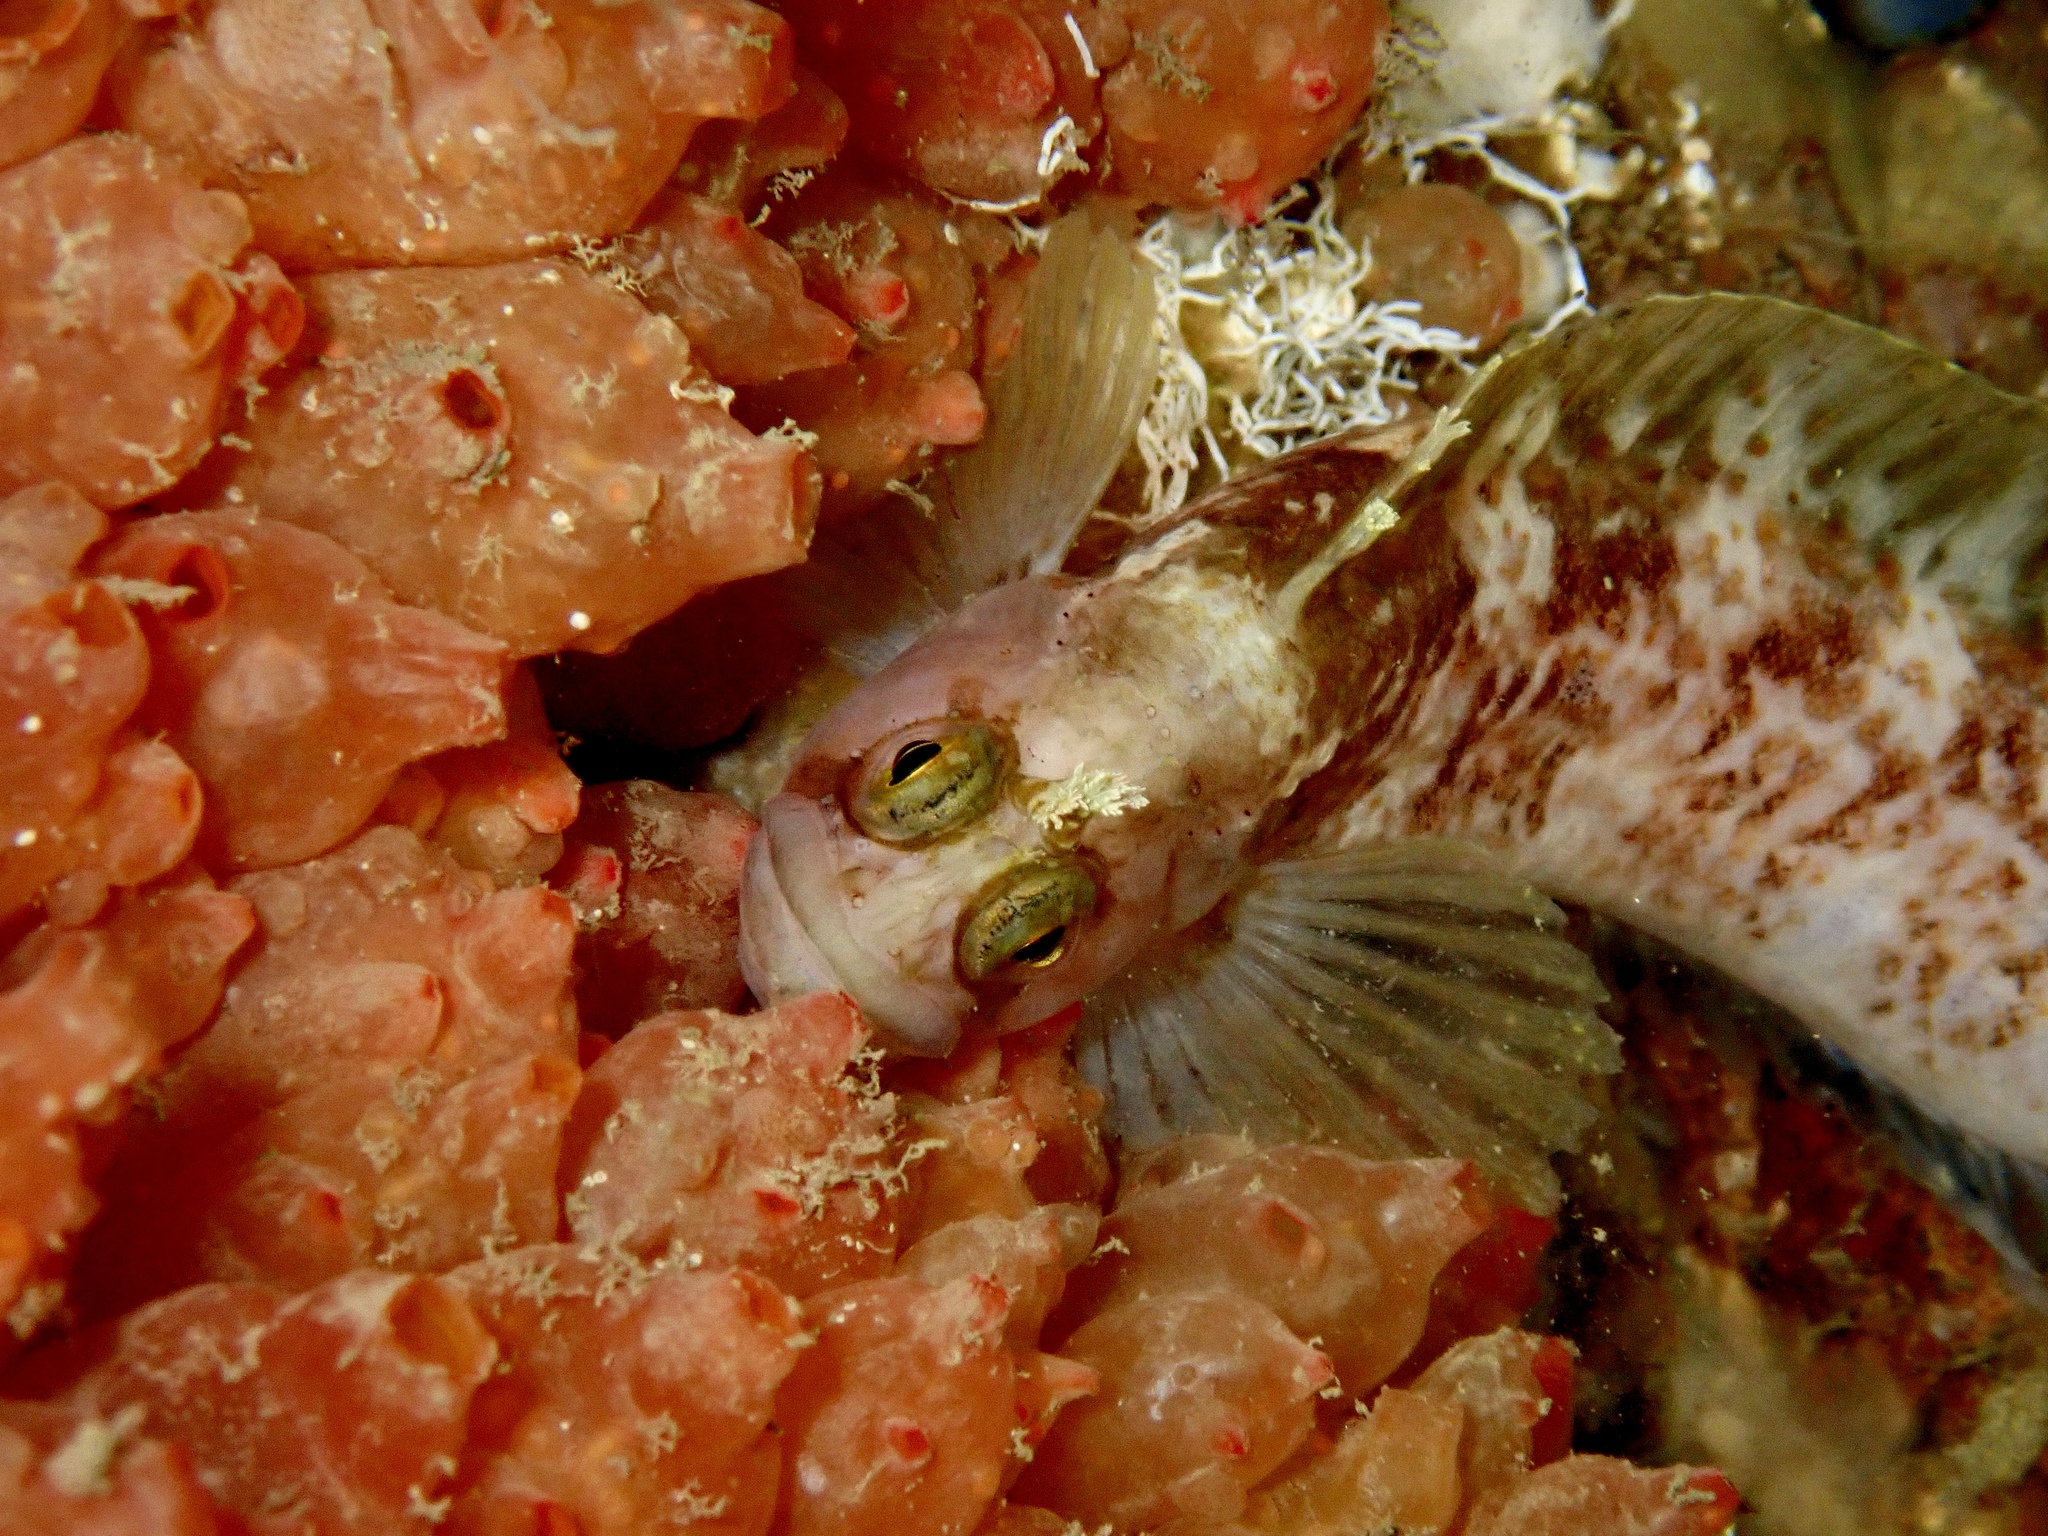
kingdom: Animalia
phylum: Chordata
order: Perciformes
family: Stichaeidae
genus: Chirolophis
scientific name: Chirolophis ascanii
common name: Yarrell's blenny
